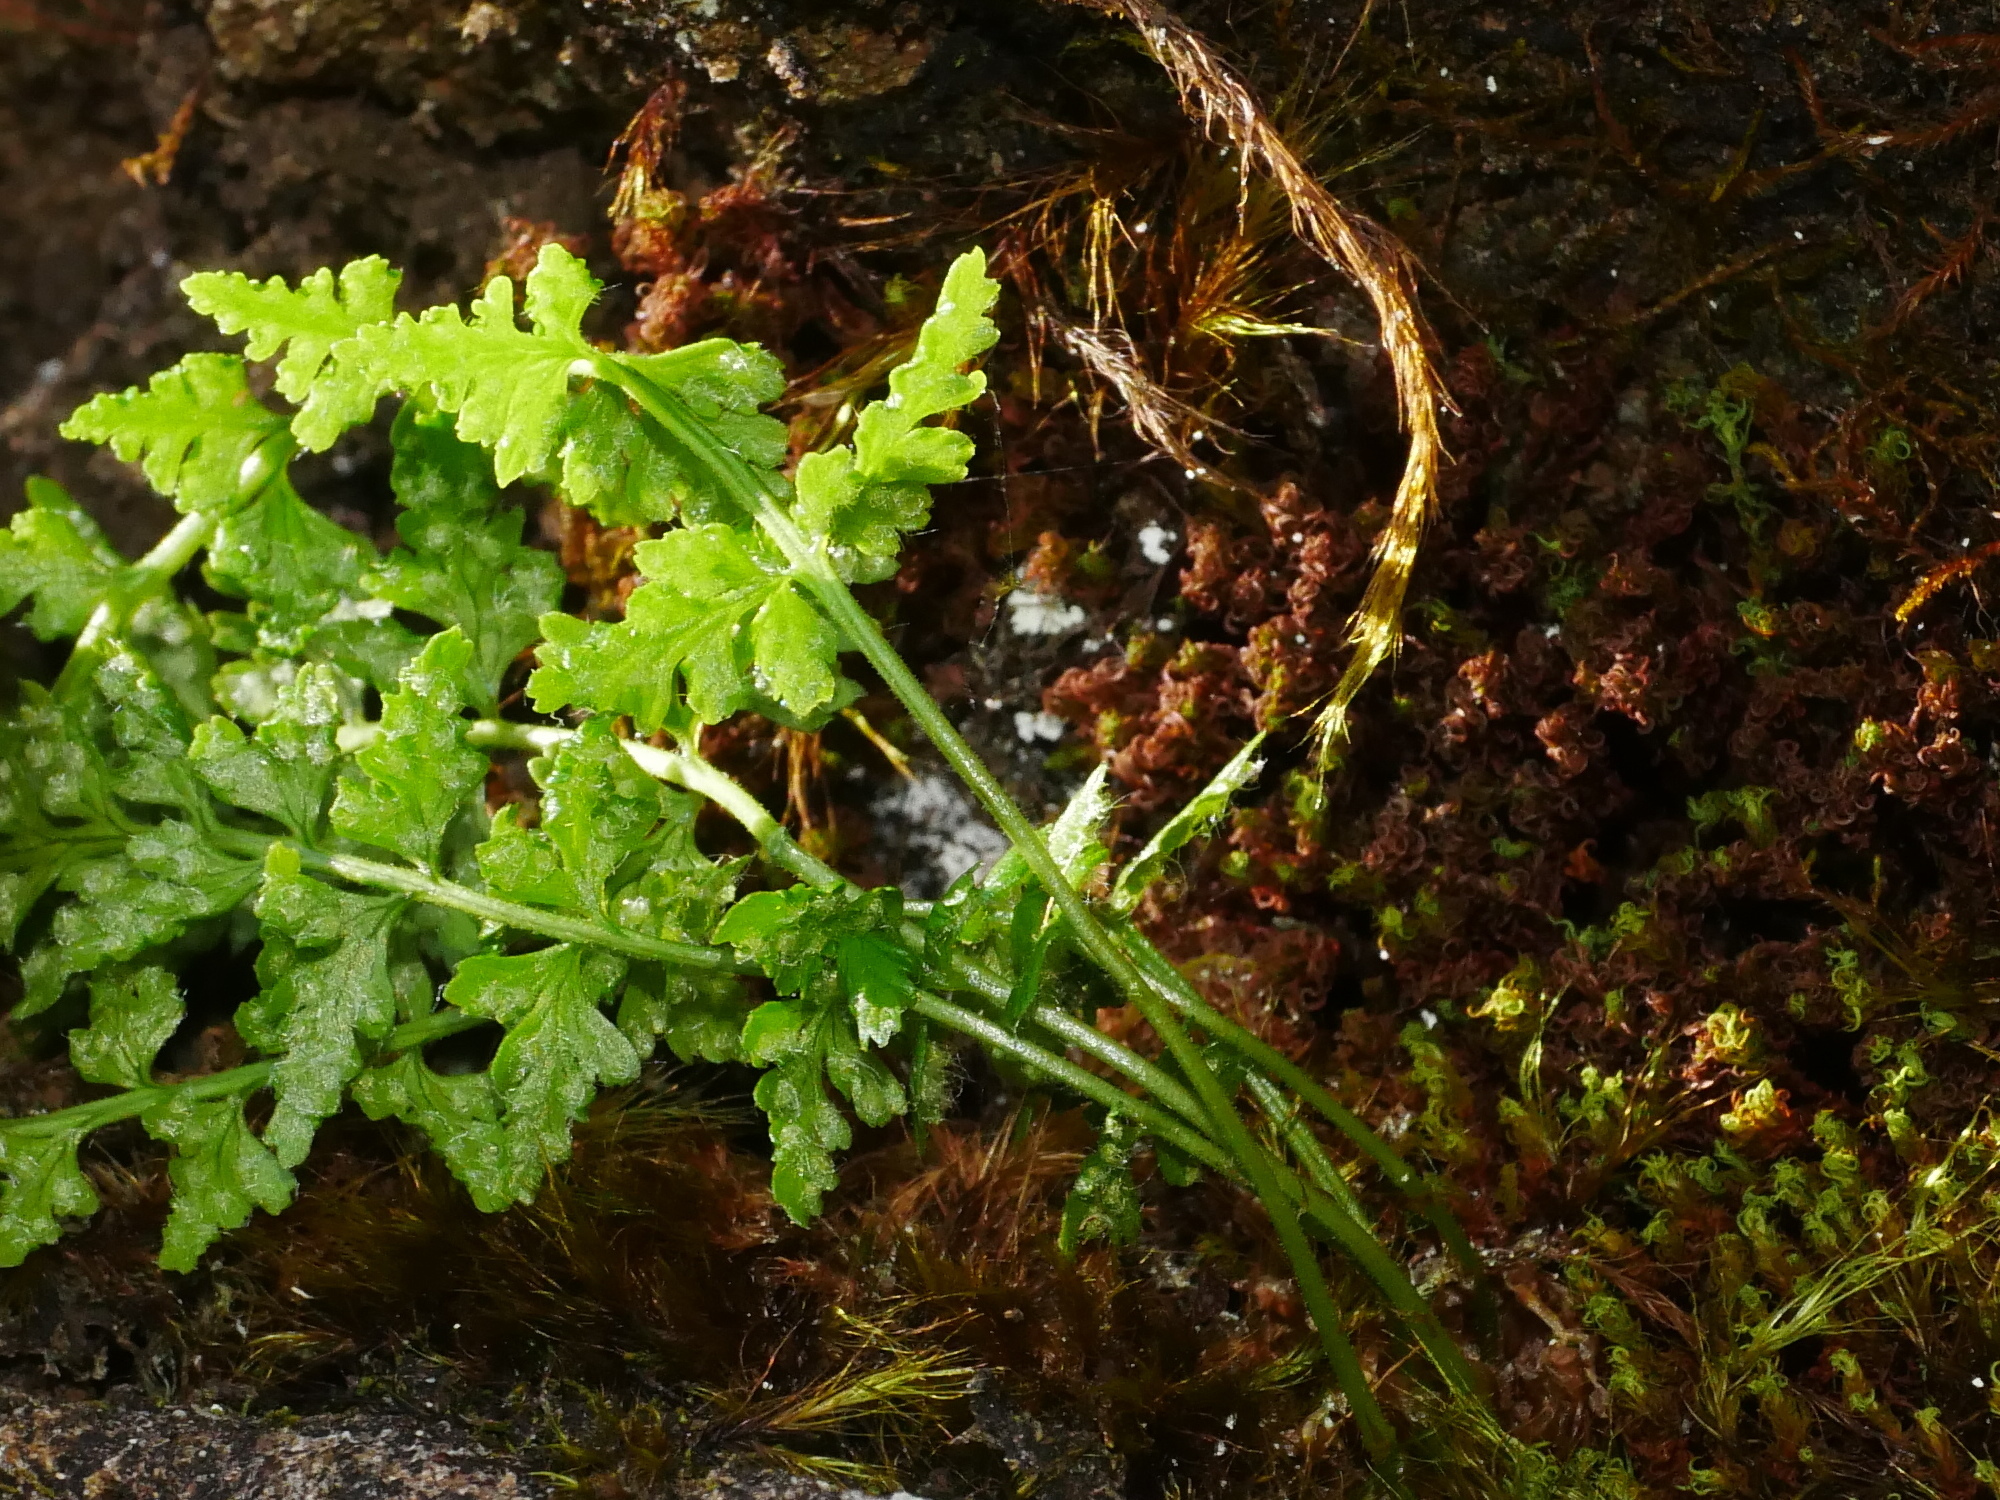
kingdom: Plantae
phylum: Tracheophyta
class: Polypodiopsida
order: Polypodiales
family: Woodsiaceae
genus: Woodsia
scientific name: Woodsia shensiensis
